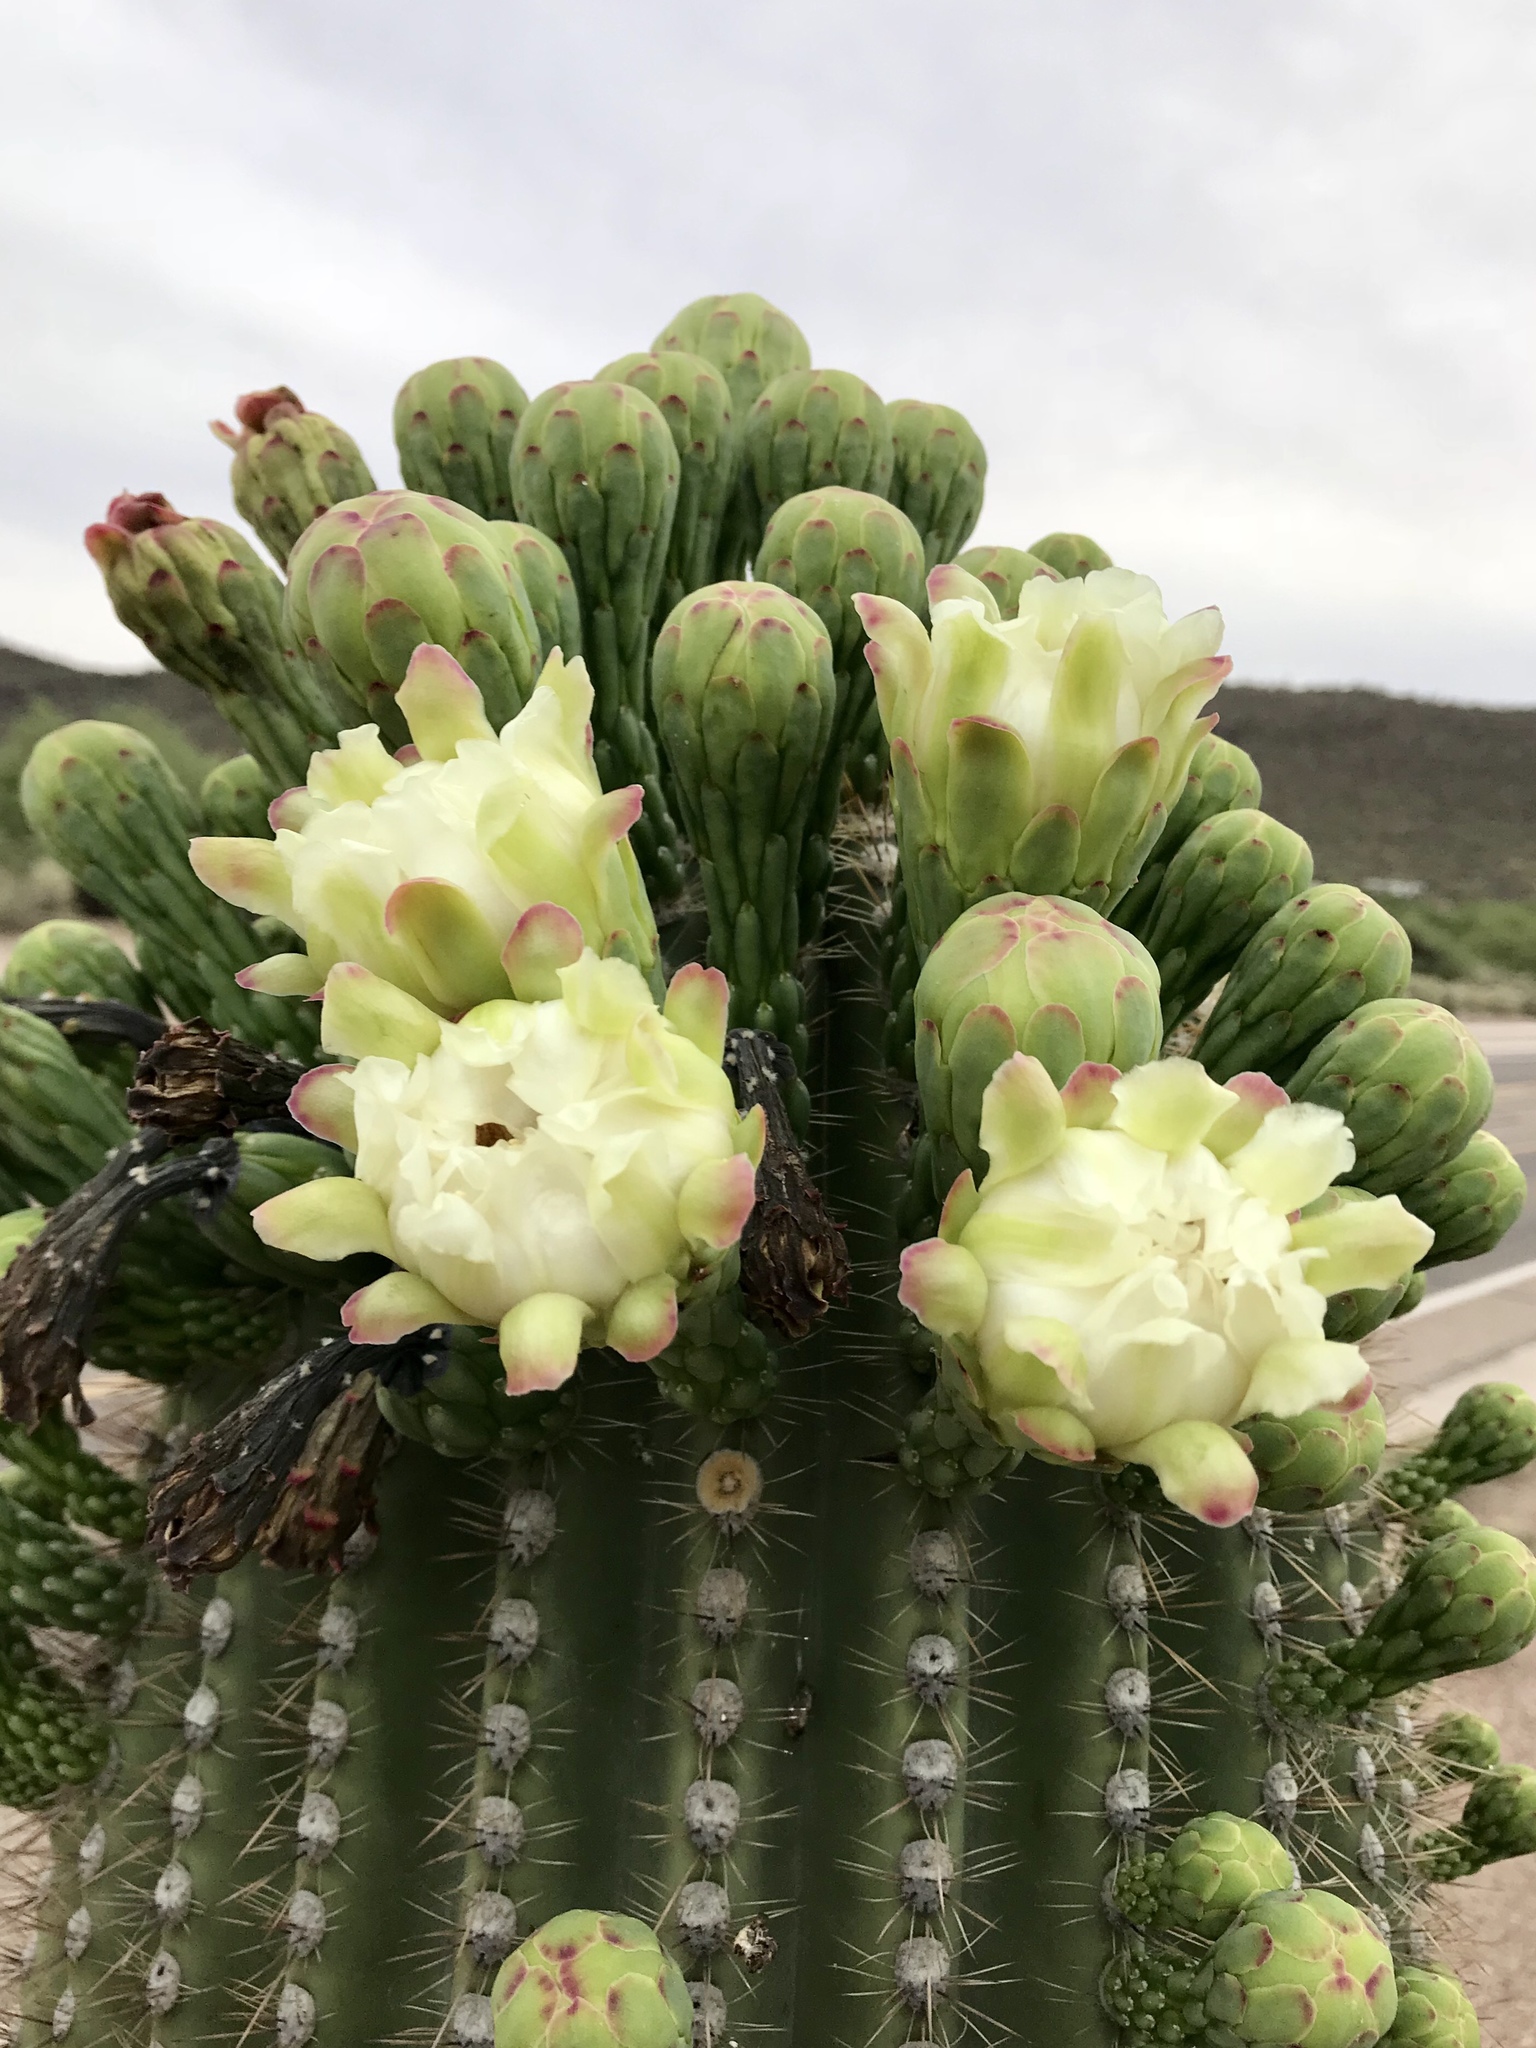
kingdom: Plantae
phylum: Tracheophyta
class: Magnoliopsida
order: Caryophyllales
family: Cactaceae
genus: Carnegiea
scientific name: Carnegiea gigantea
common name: Saguaro
